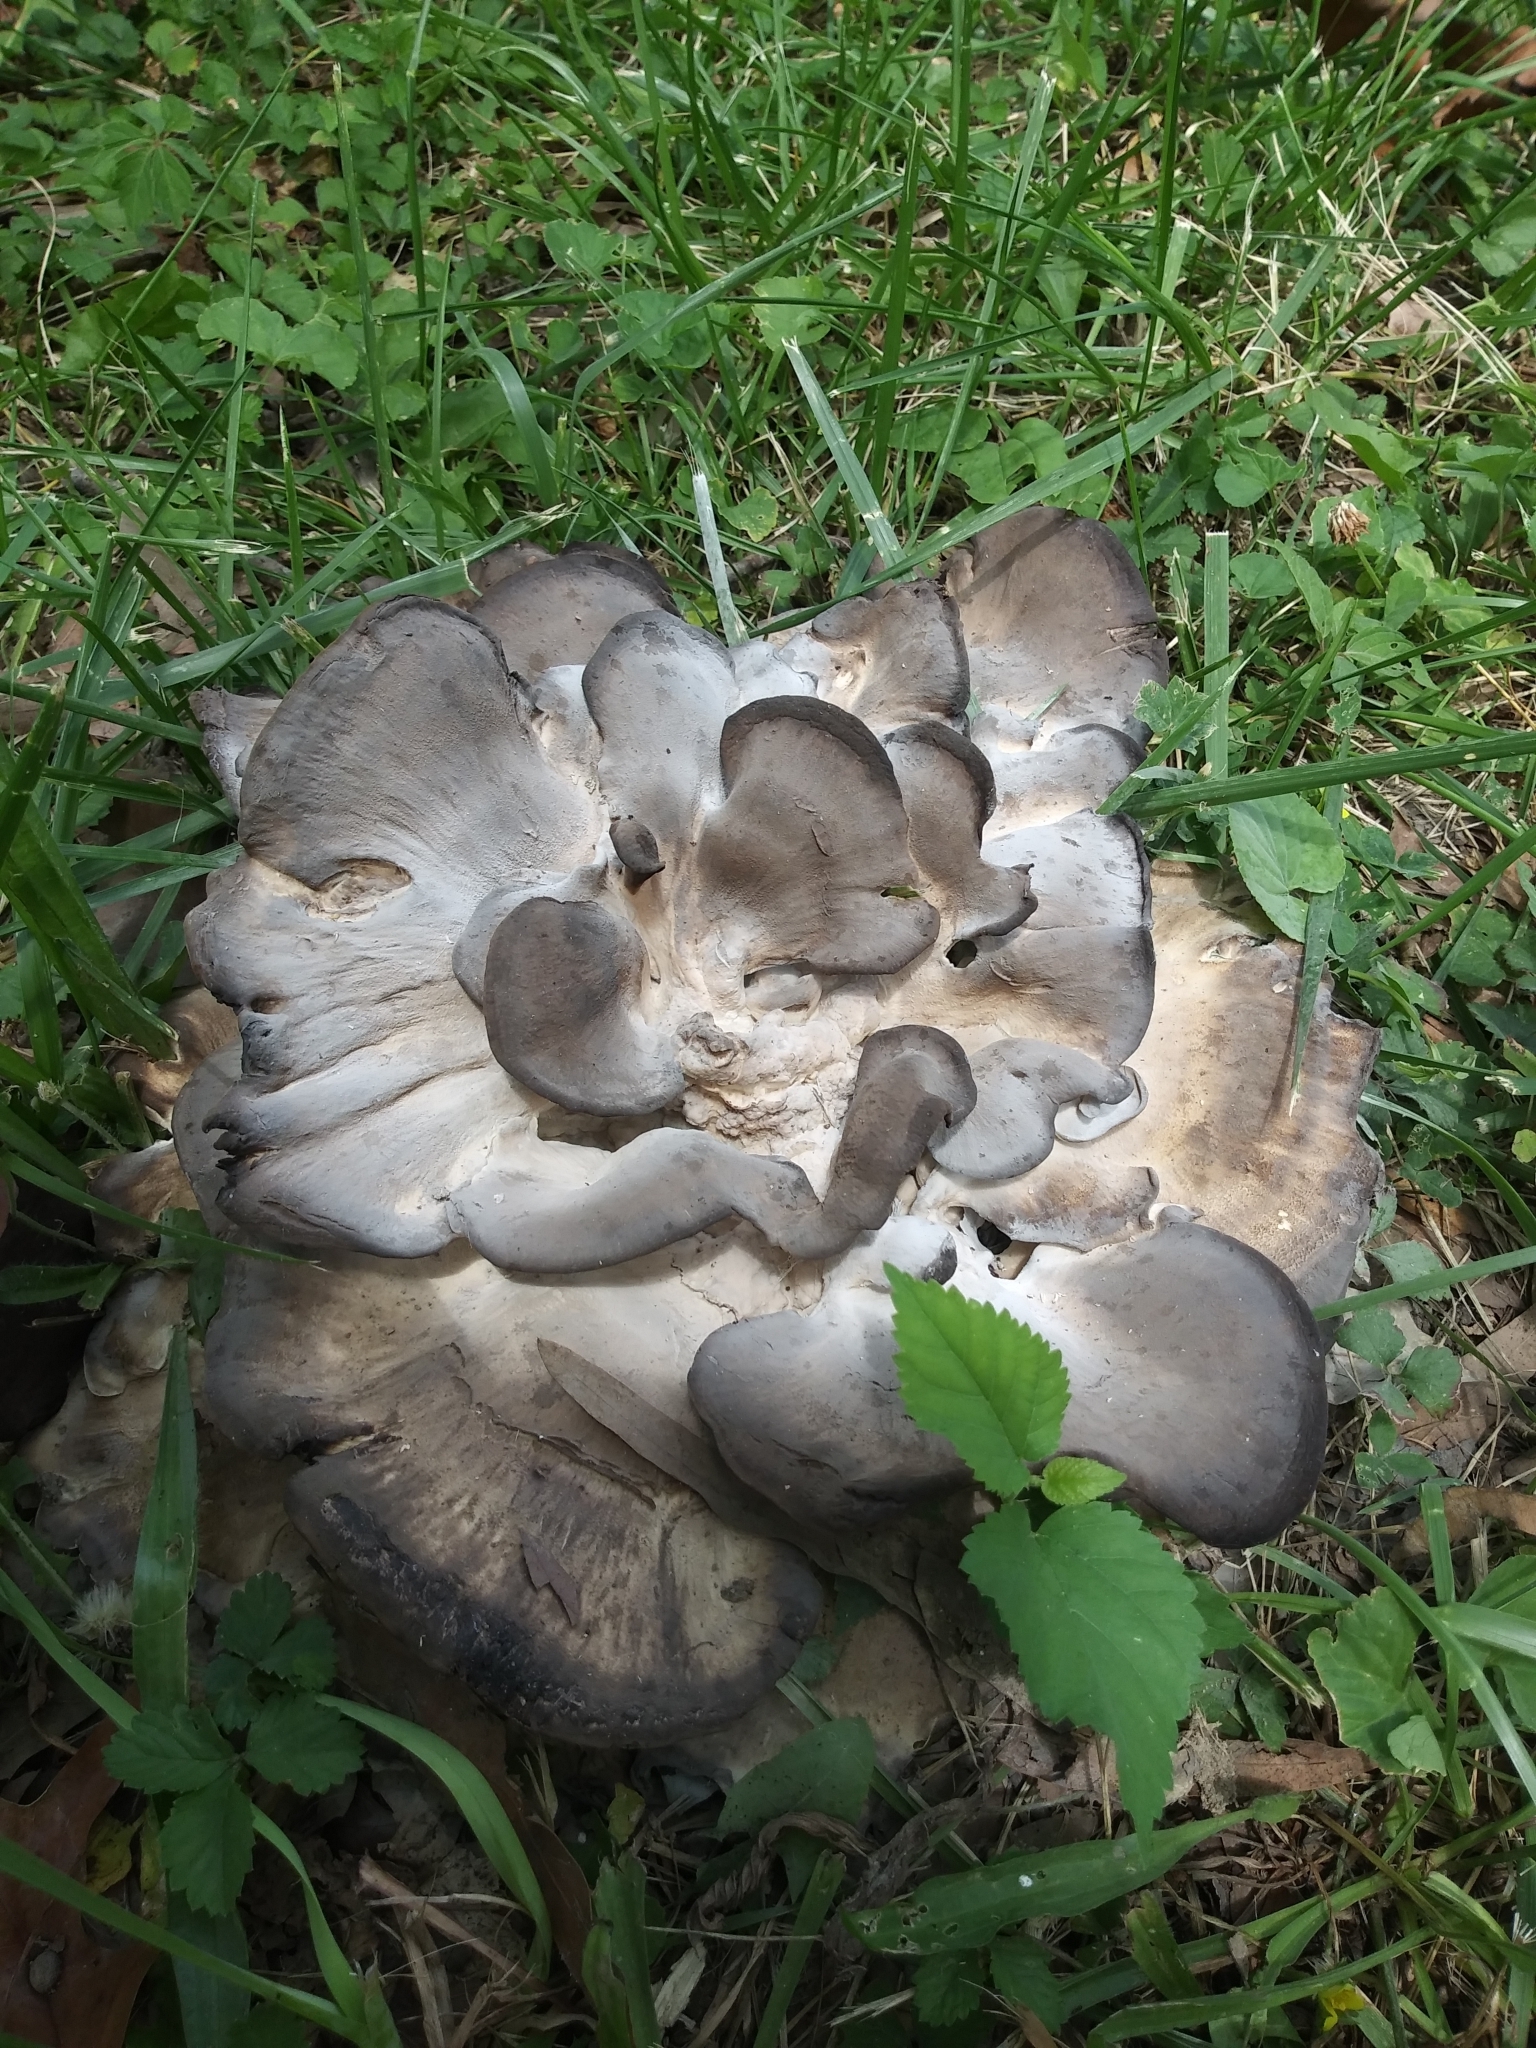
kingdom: Fungi
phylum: Basidiomycota
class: Agaricomycetes
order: Polyporales
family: Meripilaceae
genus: Meripilus
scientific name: Meripilus sumstinei
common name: Black-staining polypore
